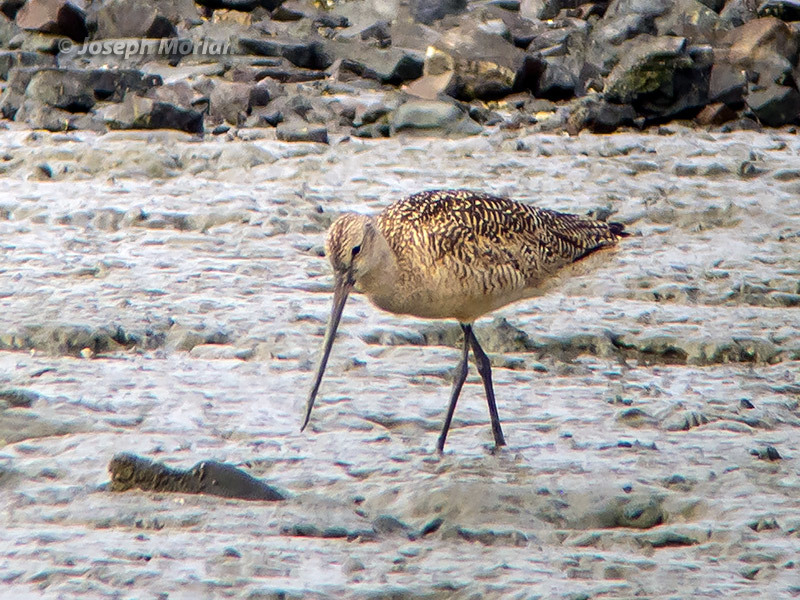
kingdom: Animalia
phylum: Chordata
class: Aves
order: Charadriiformes
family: Scolopacidae
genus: Limosa
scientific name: Limosa fedoa
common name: Marbled godwit
